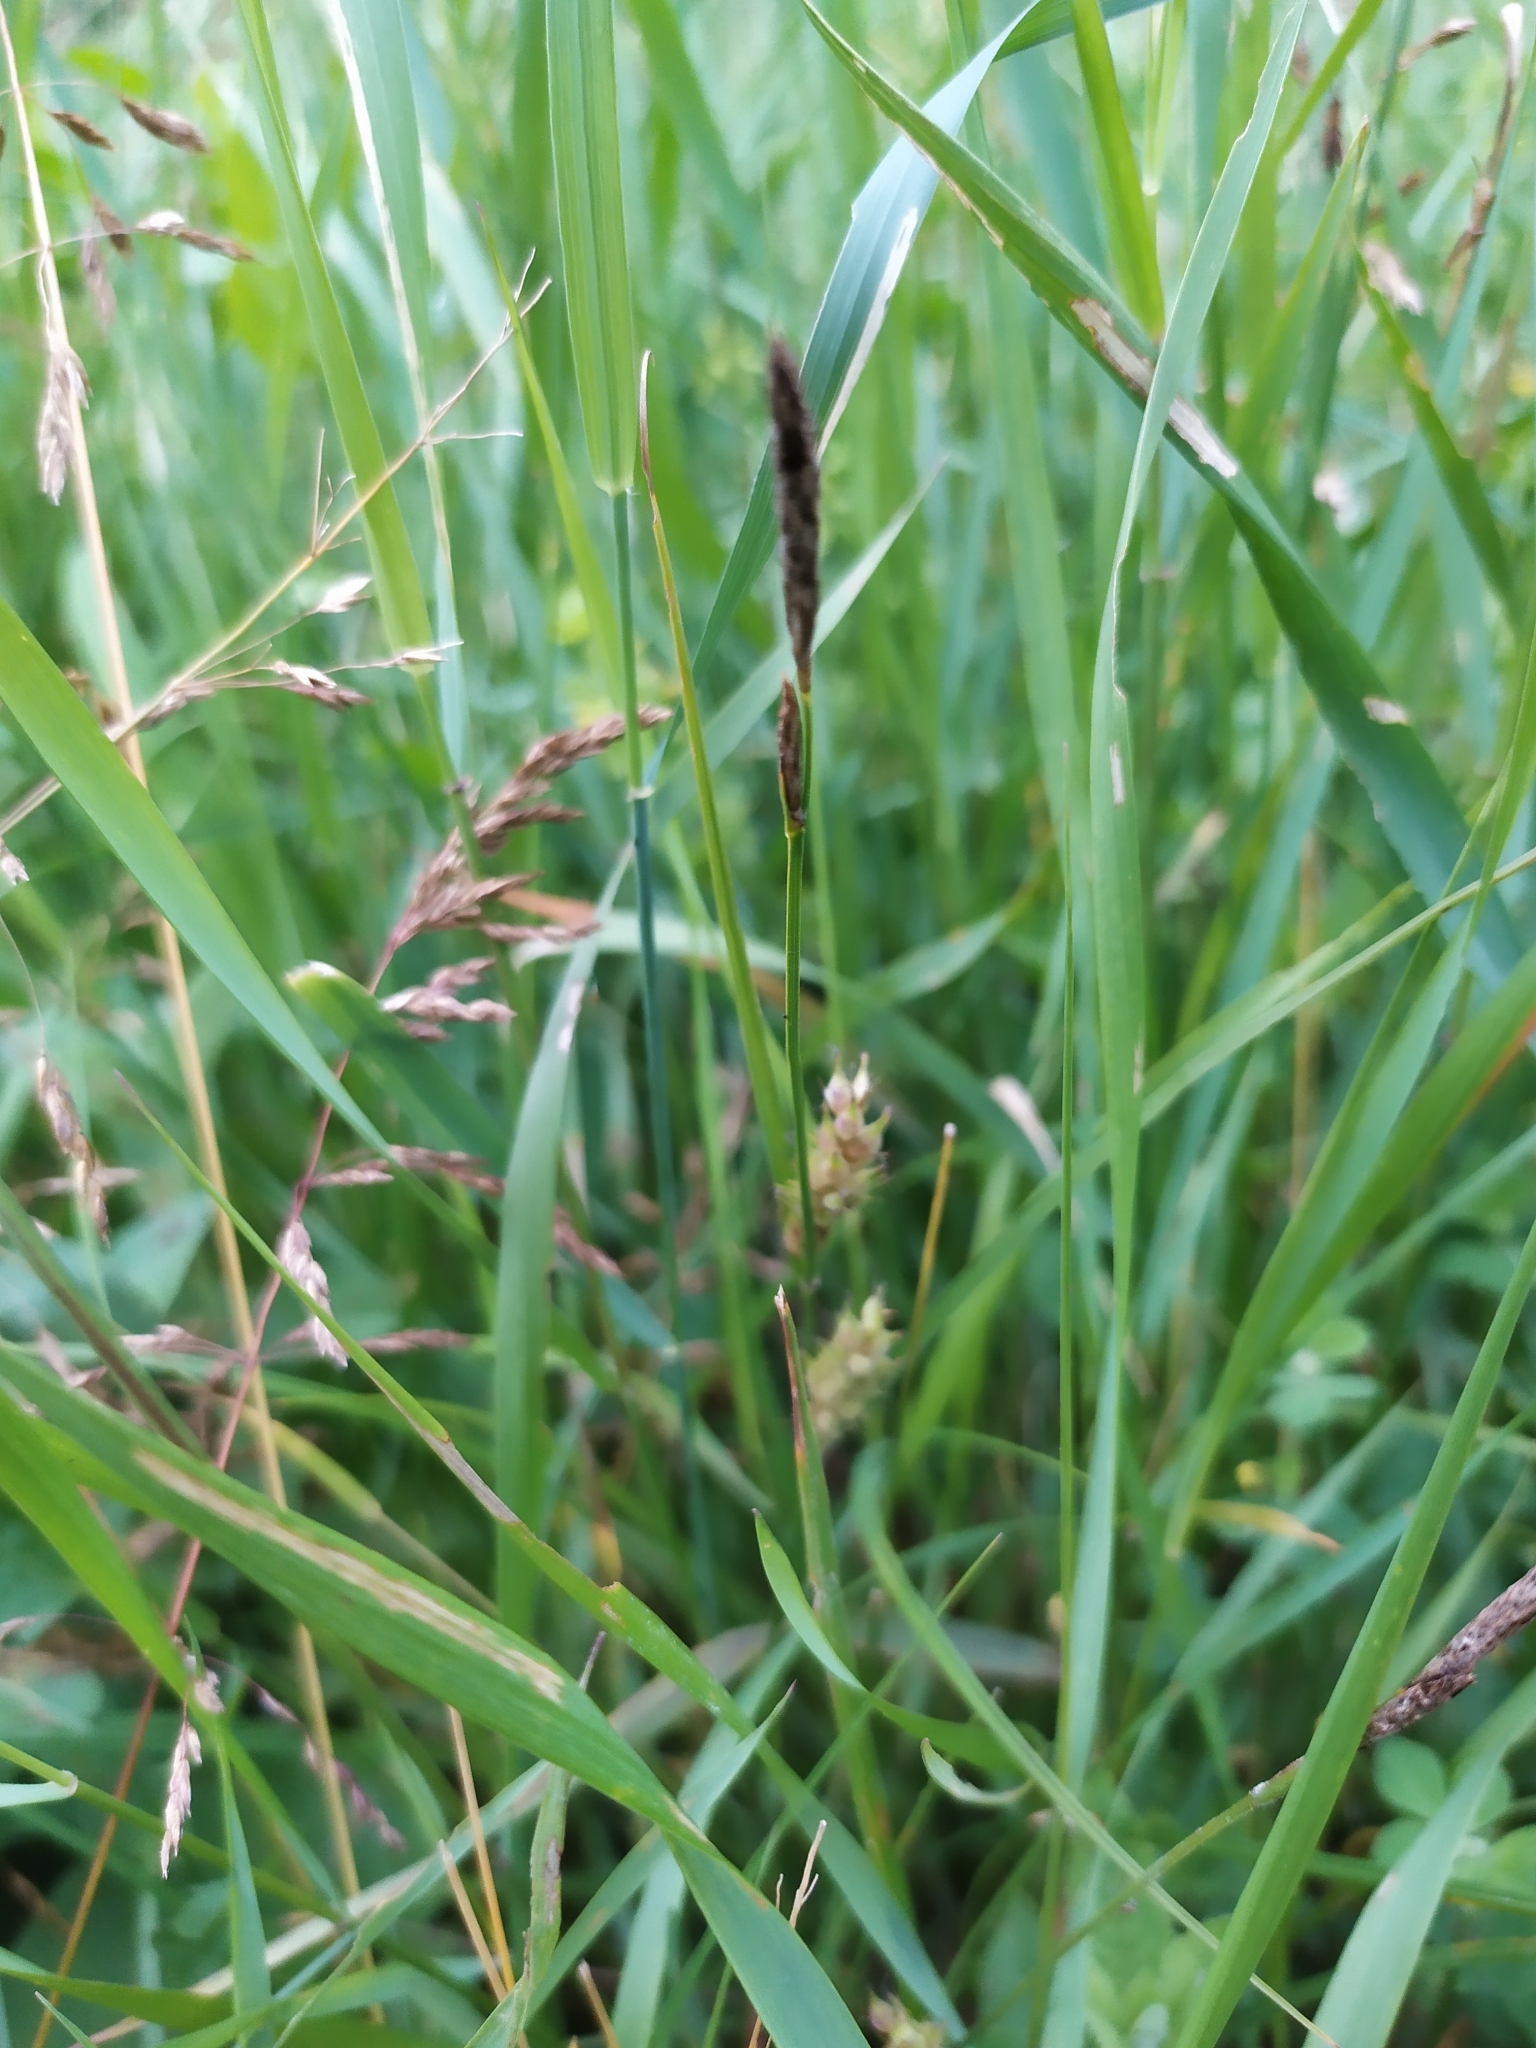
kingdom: Plantae
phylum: Tracheophyta
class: Liliopsida
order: Poales
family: Cyperaceae
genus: Carex
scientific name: Carex hirta
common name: Hairy sedge
